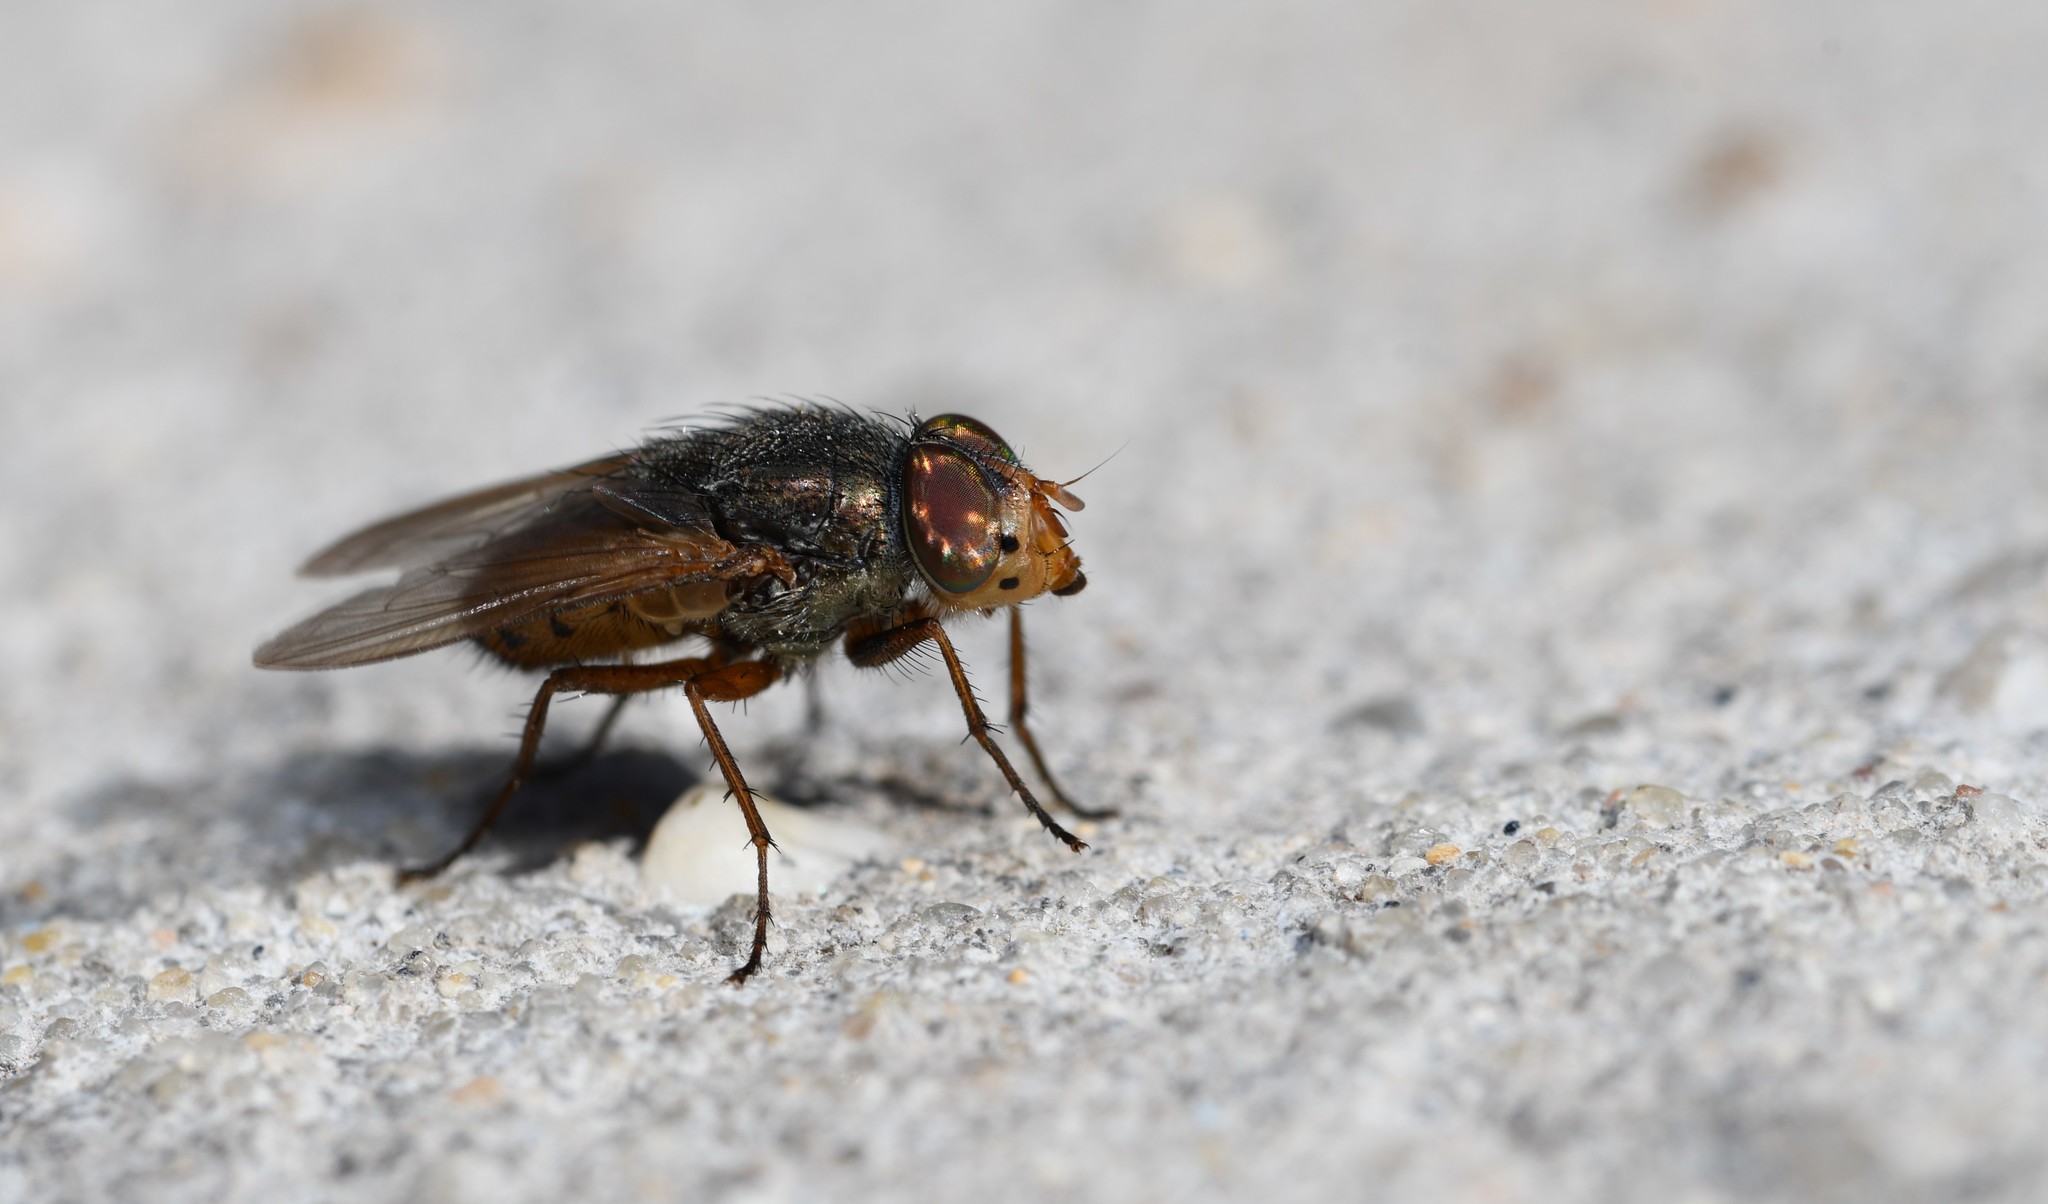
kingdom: Animalia
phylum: Arthropoda
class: Insecta
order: Diptera
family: Calliphoridae
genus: Rhyncomya
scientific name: Rhyncomya columbina
